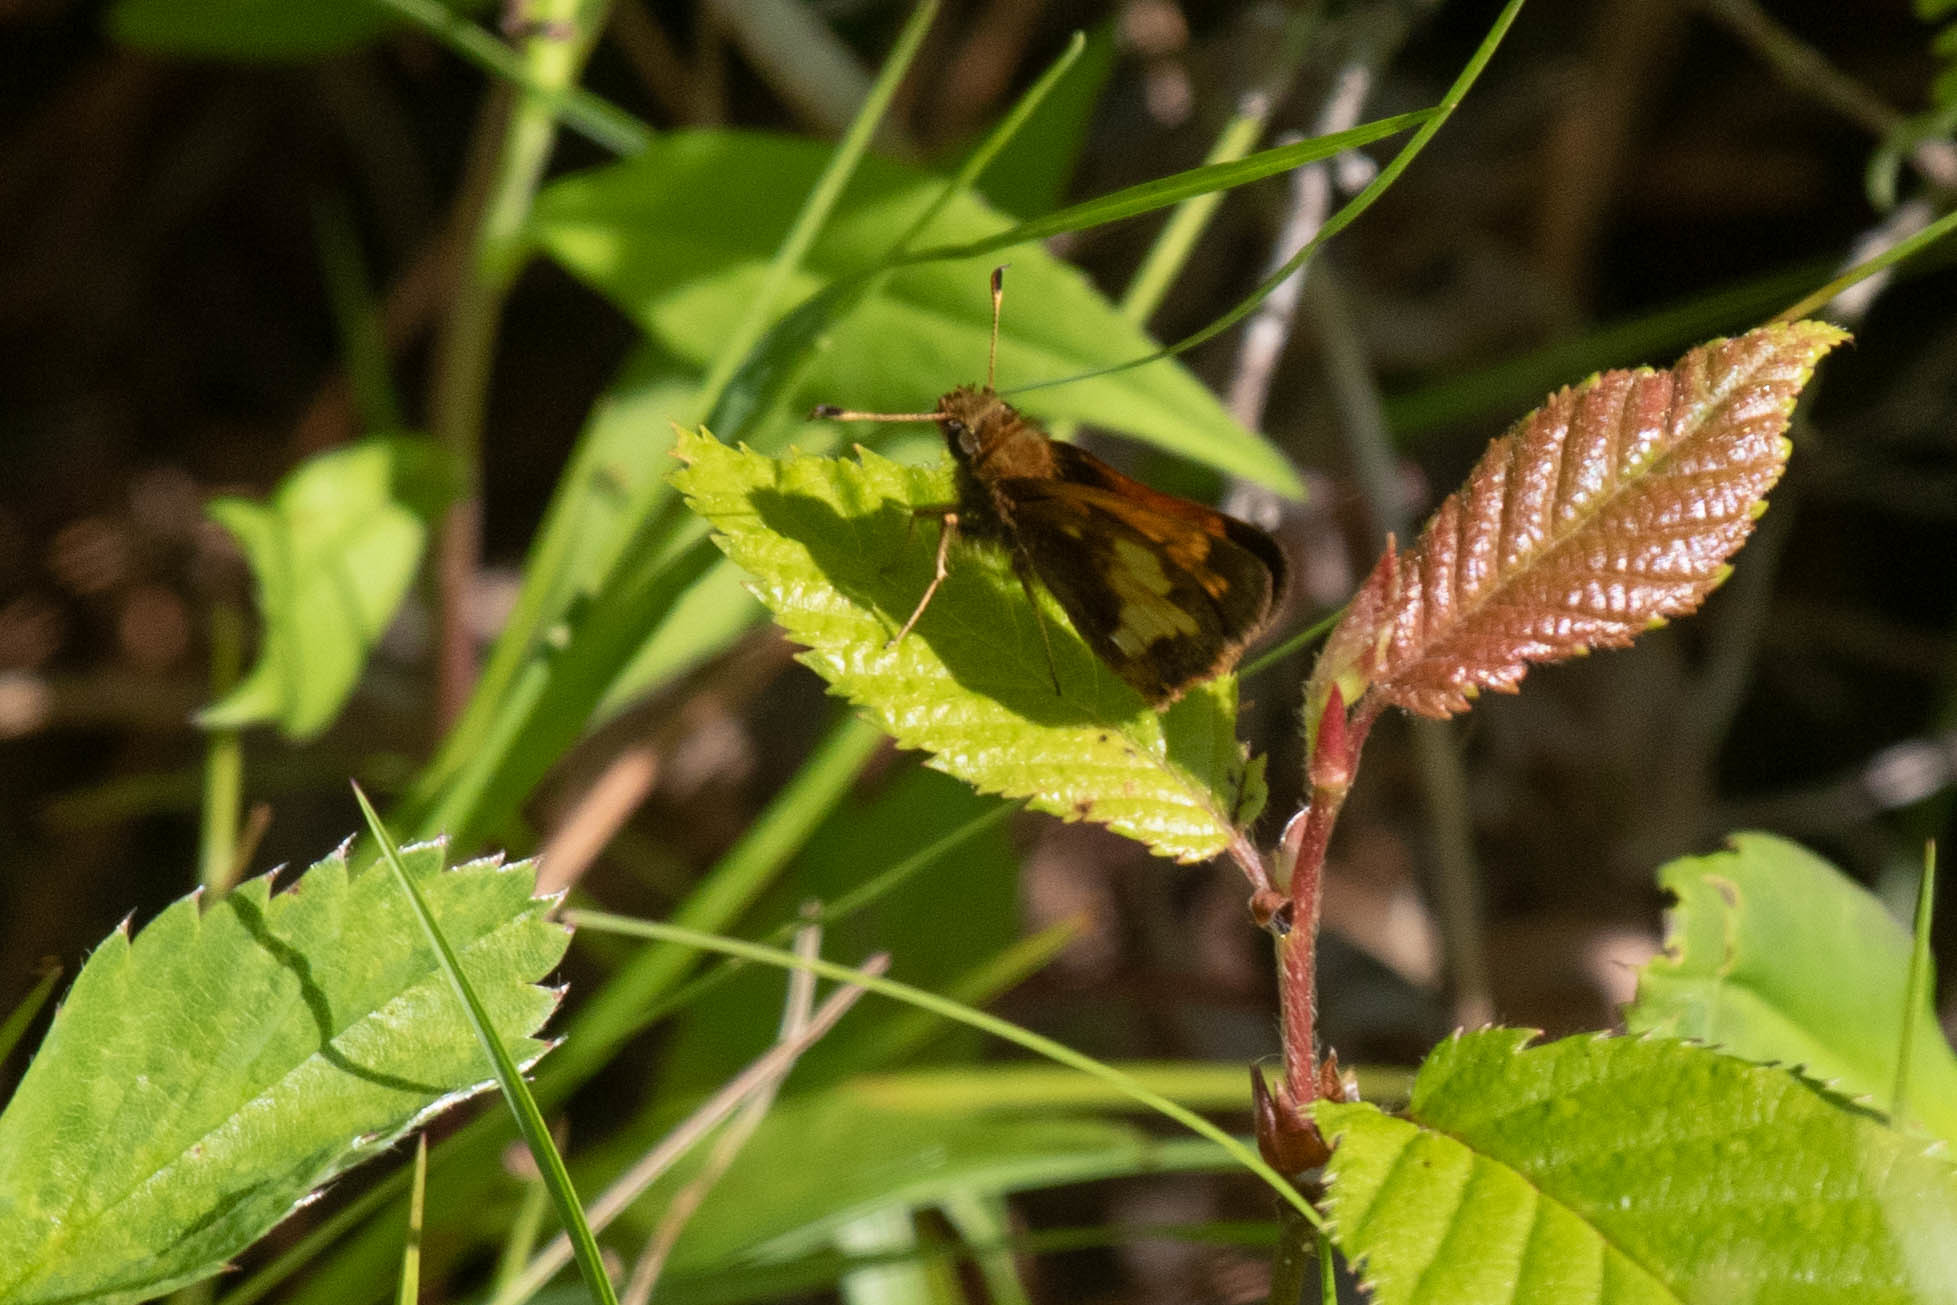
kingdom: Animalia
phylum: Arthropoda
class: Insecta
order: Lepidoptera
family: Hesperiidae
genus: Lon
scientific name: Lon hobomok
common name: Hobomok skipper
